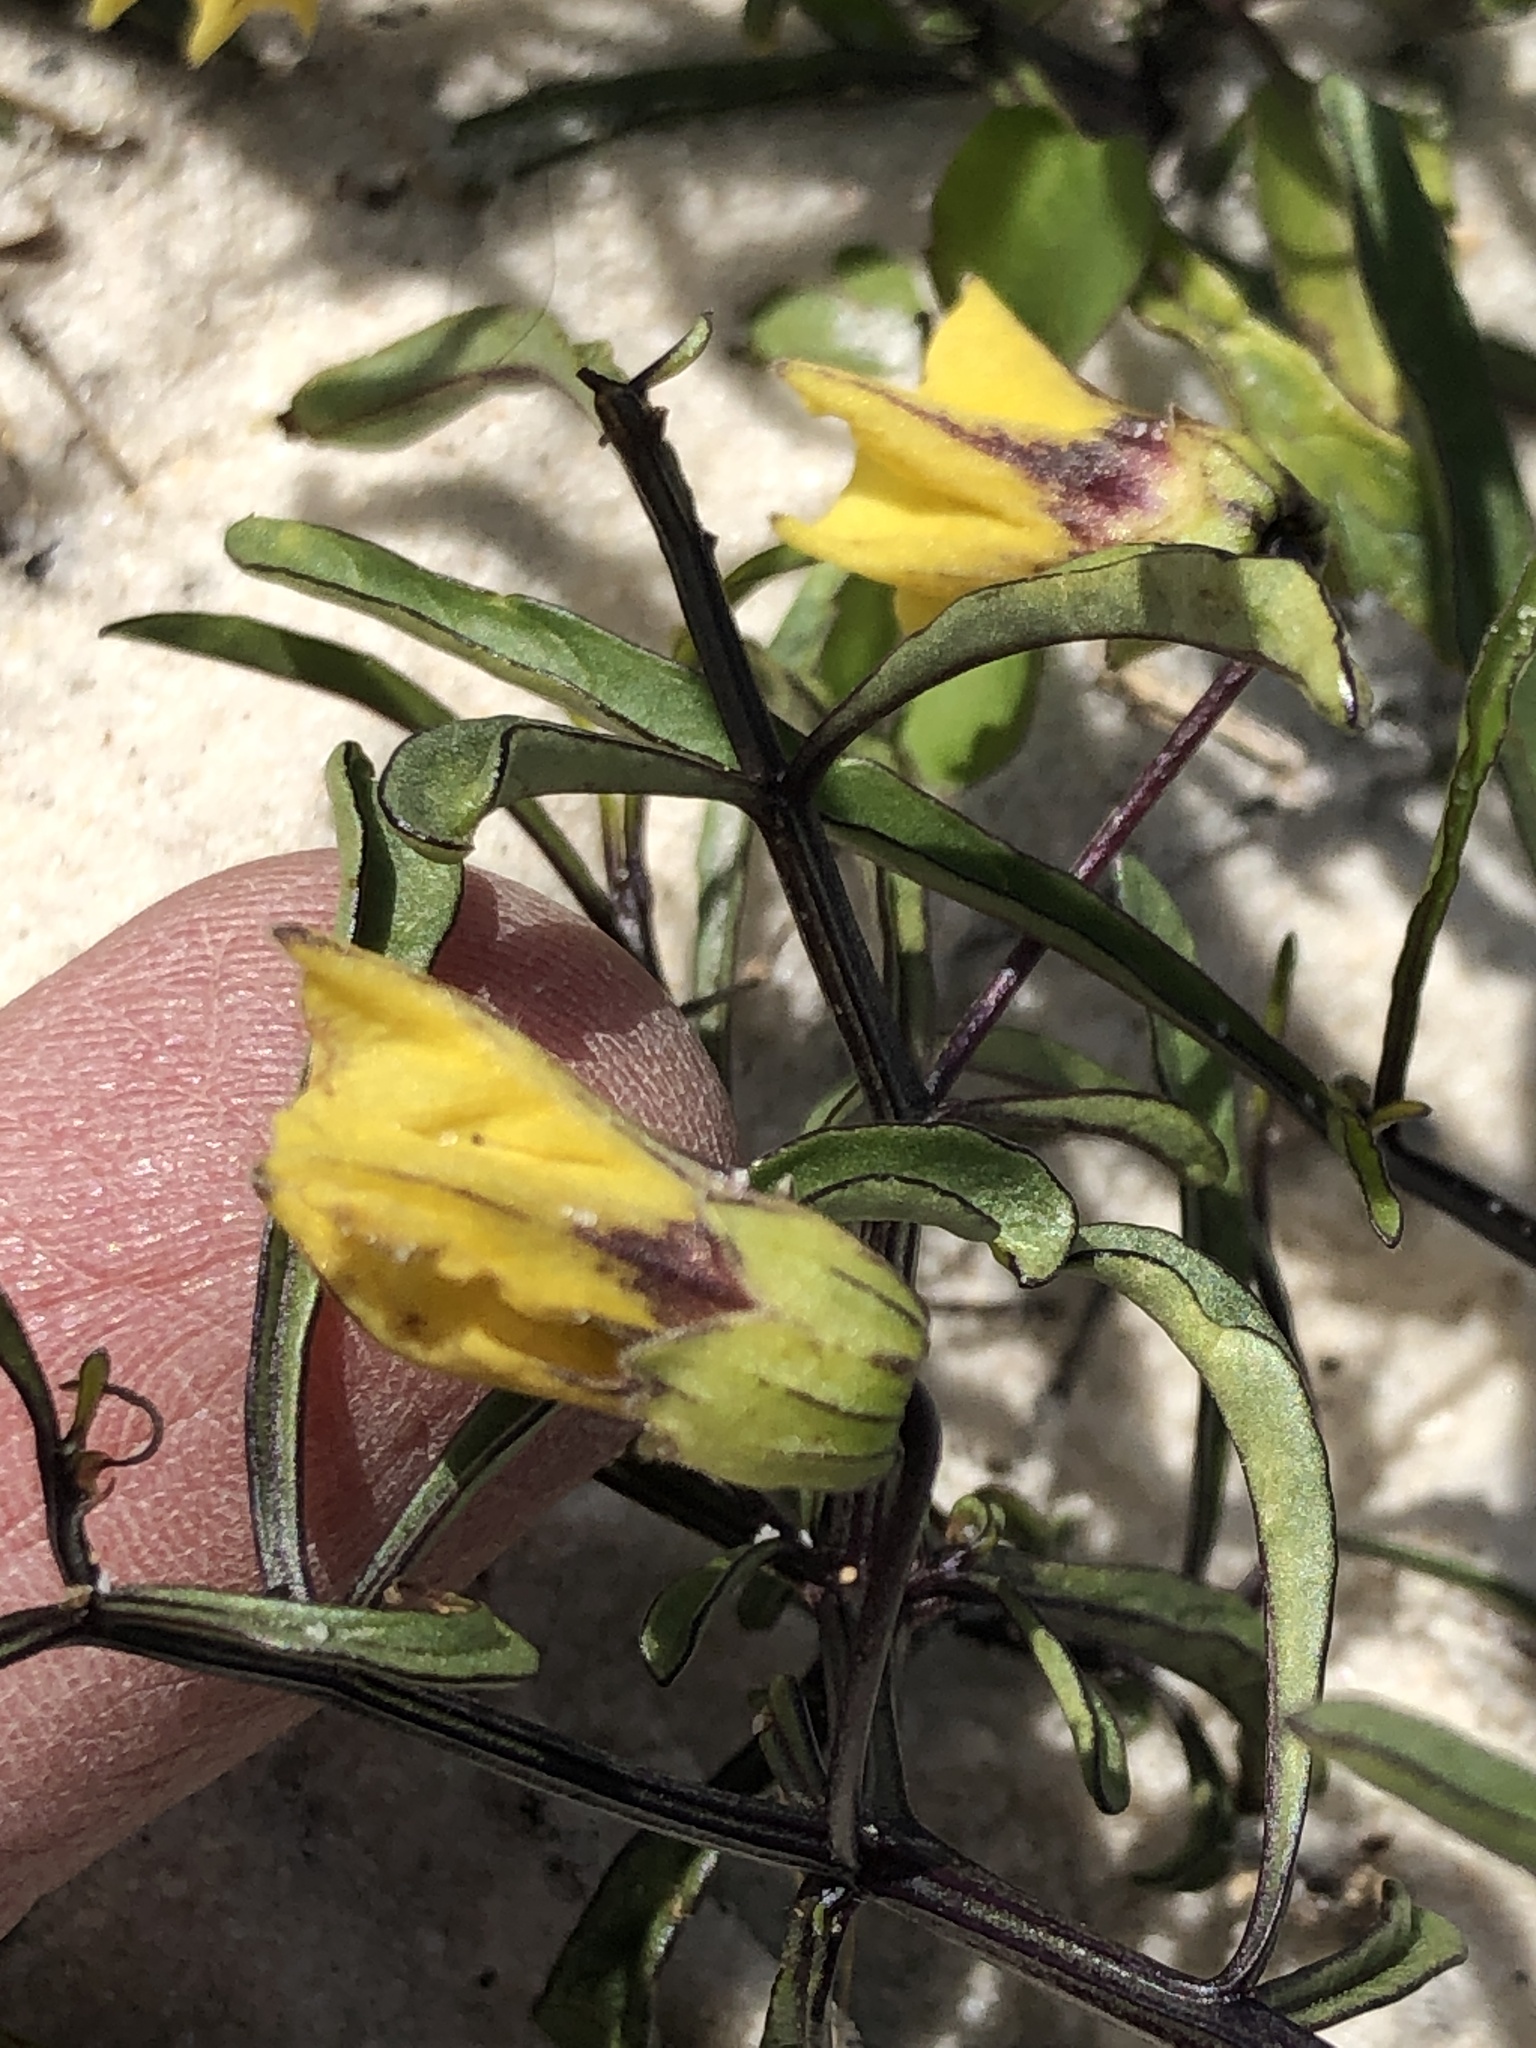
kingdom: Plantae
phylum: Tracheophyta
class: Magnoliopsida
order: Solanales
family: Solanaceae
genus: Physalis
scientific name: Physalis angustifolia
